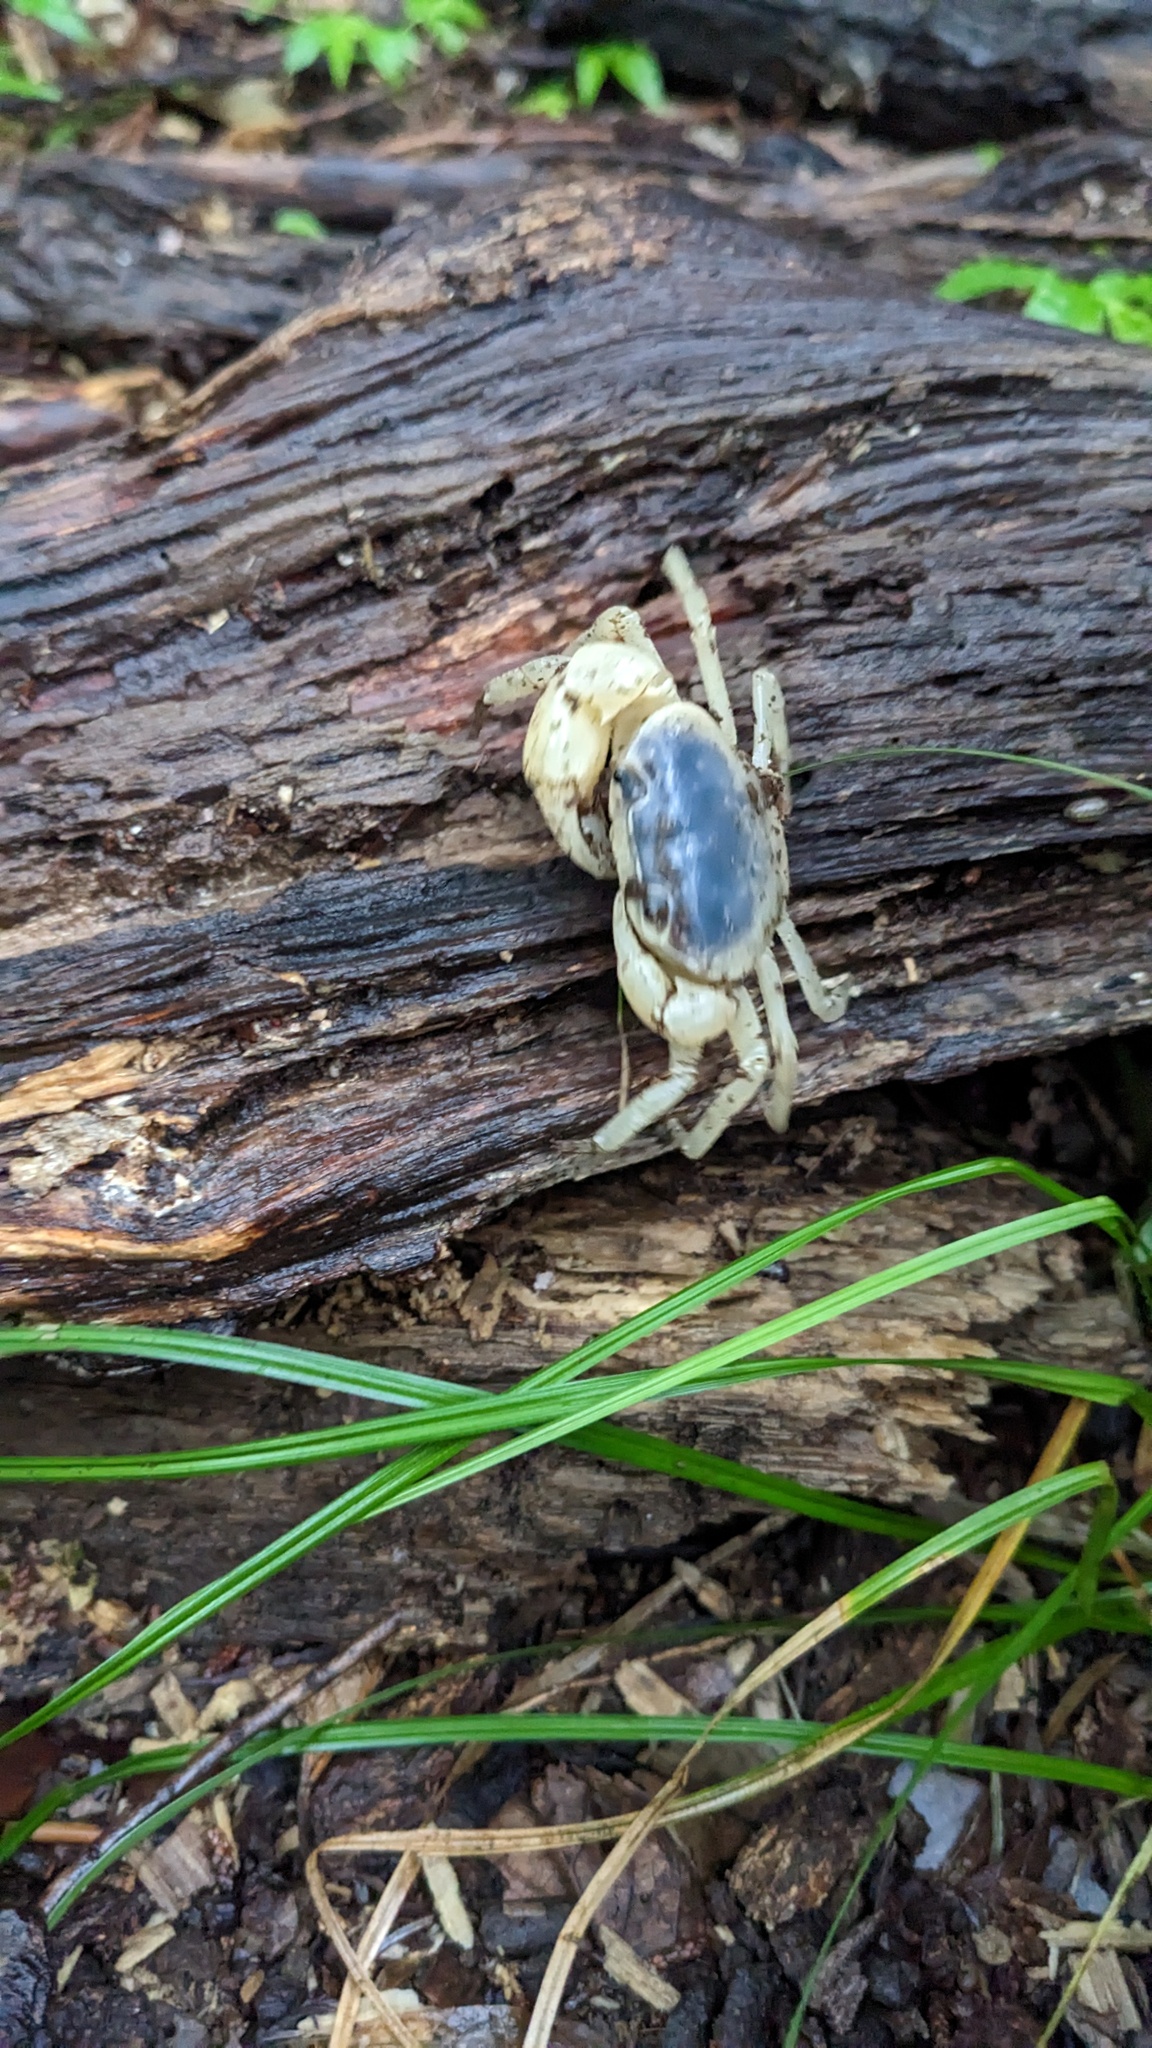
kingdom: Animalia
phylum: Arthropoda
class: Malacostraca
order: Decapoda
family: Potamidae
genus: Geothelphusa
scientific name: Geothelphusa dehaani
